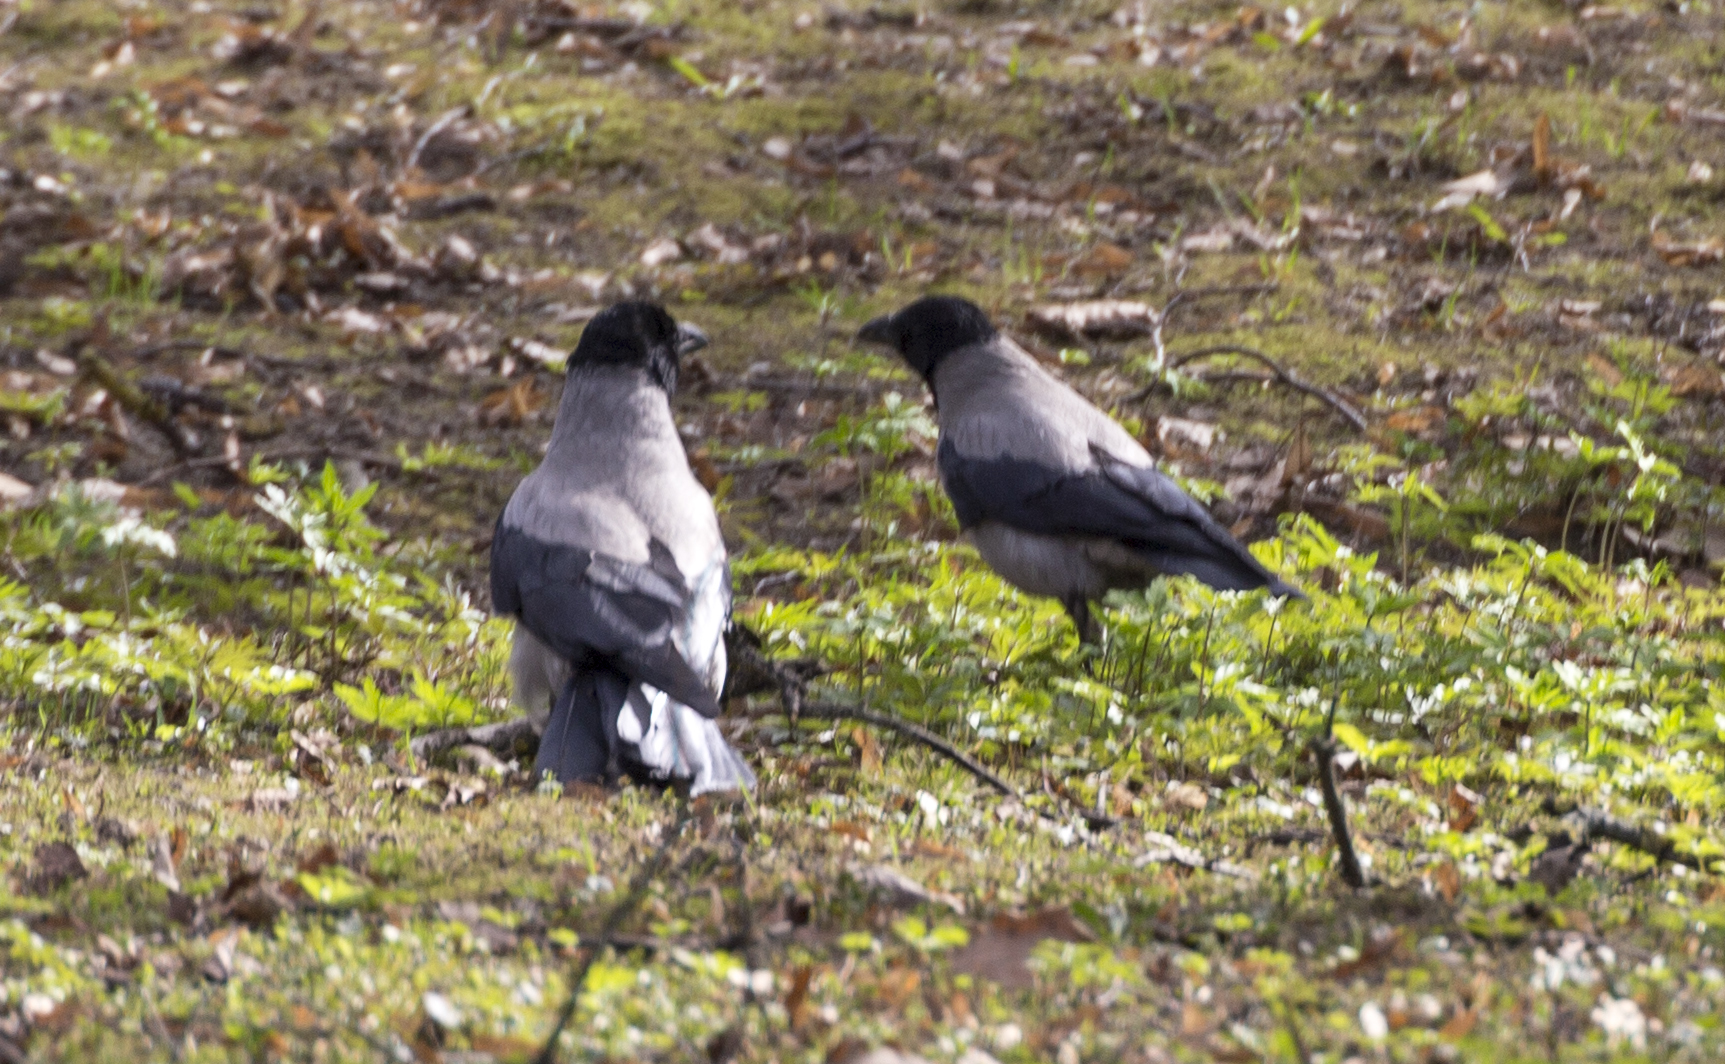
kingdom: Animalia
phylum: Chordata
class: Aves
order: Passeriformes
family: Corvidae
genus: Corvus
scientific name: Corvus cornix
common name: Hooded crow
